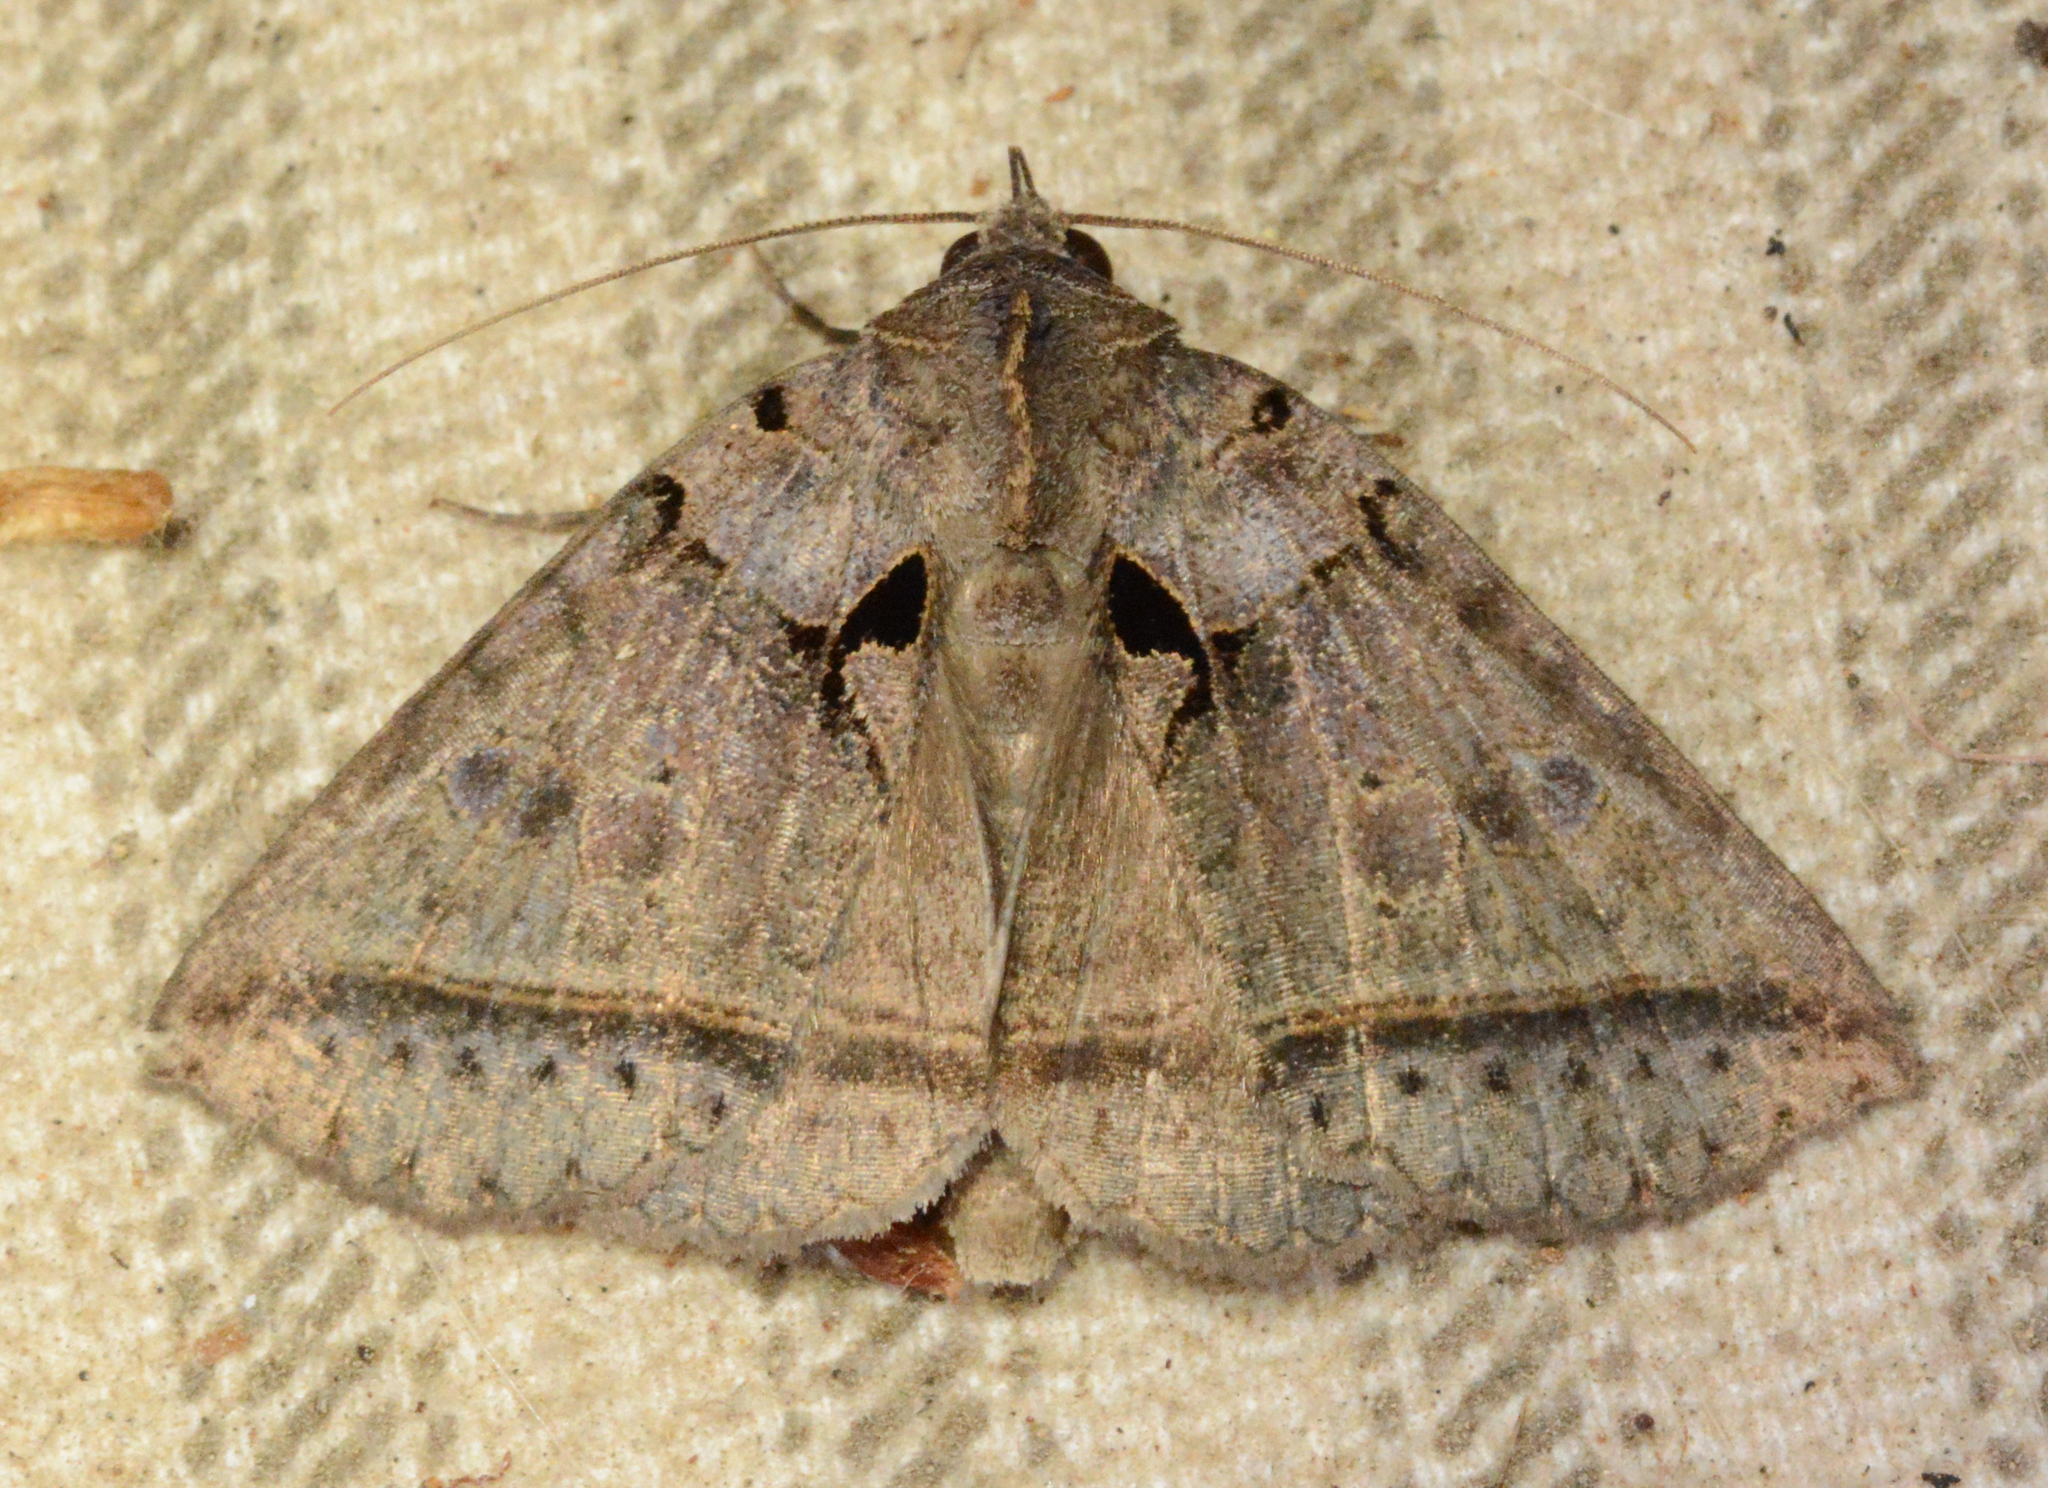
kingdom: Animalia
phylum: Arthropoda
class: Insecta
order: Lepidoptera
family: Erebidae
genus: Celiptera
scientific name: Celiptera frustulum
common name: Black bit moth
